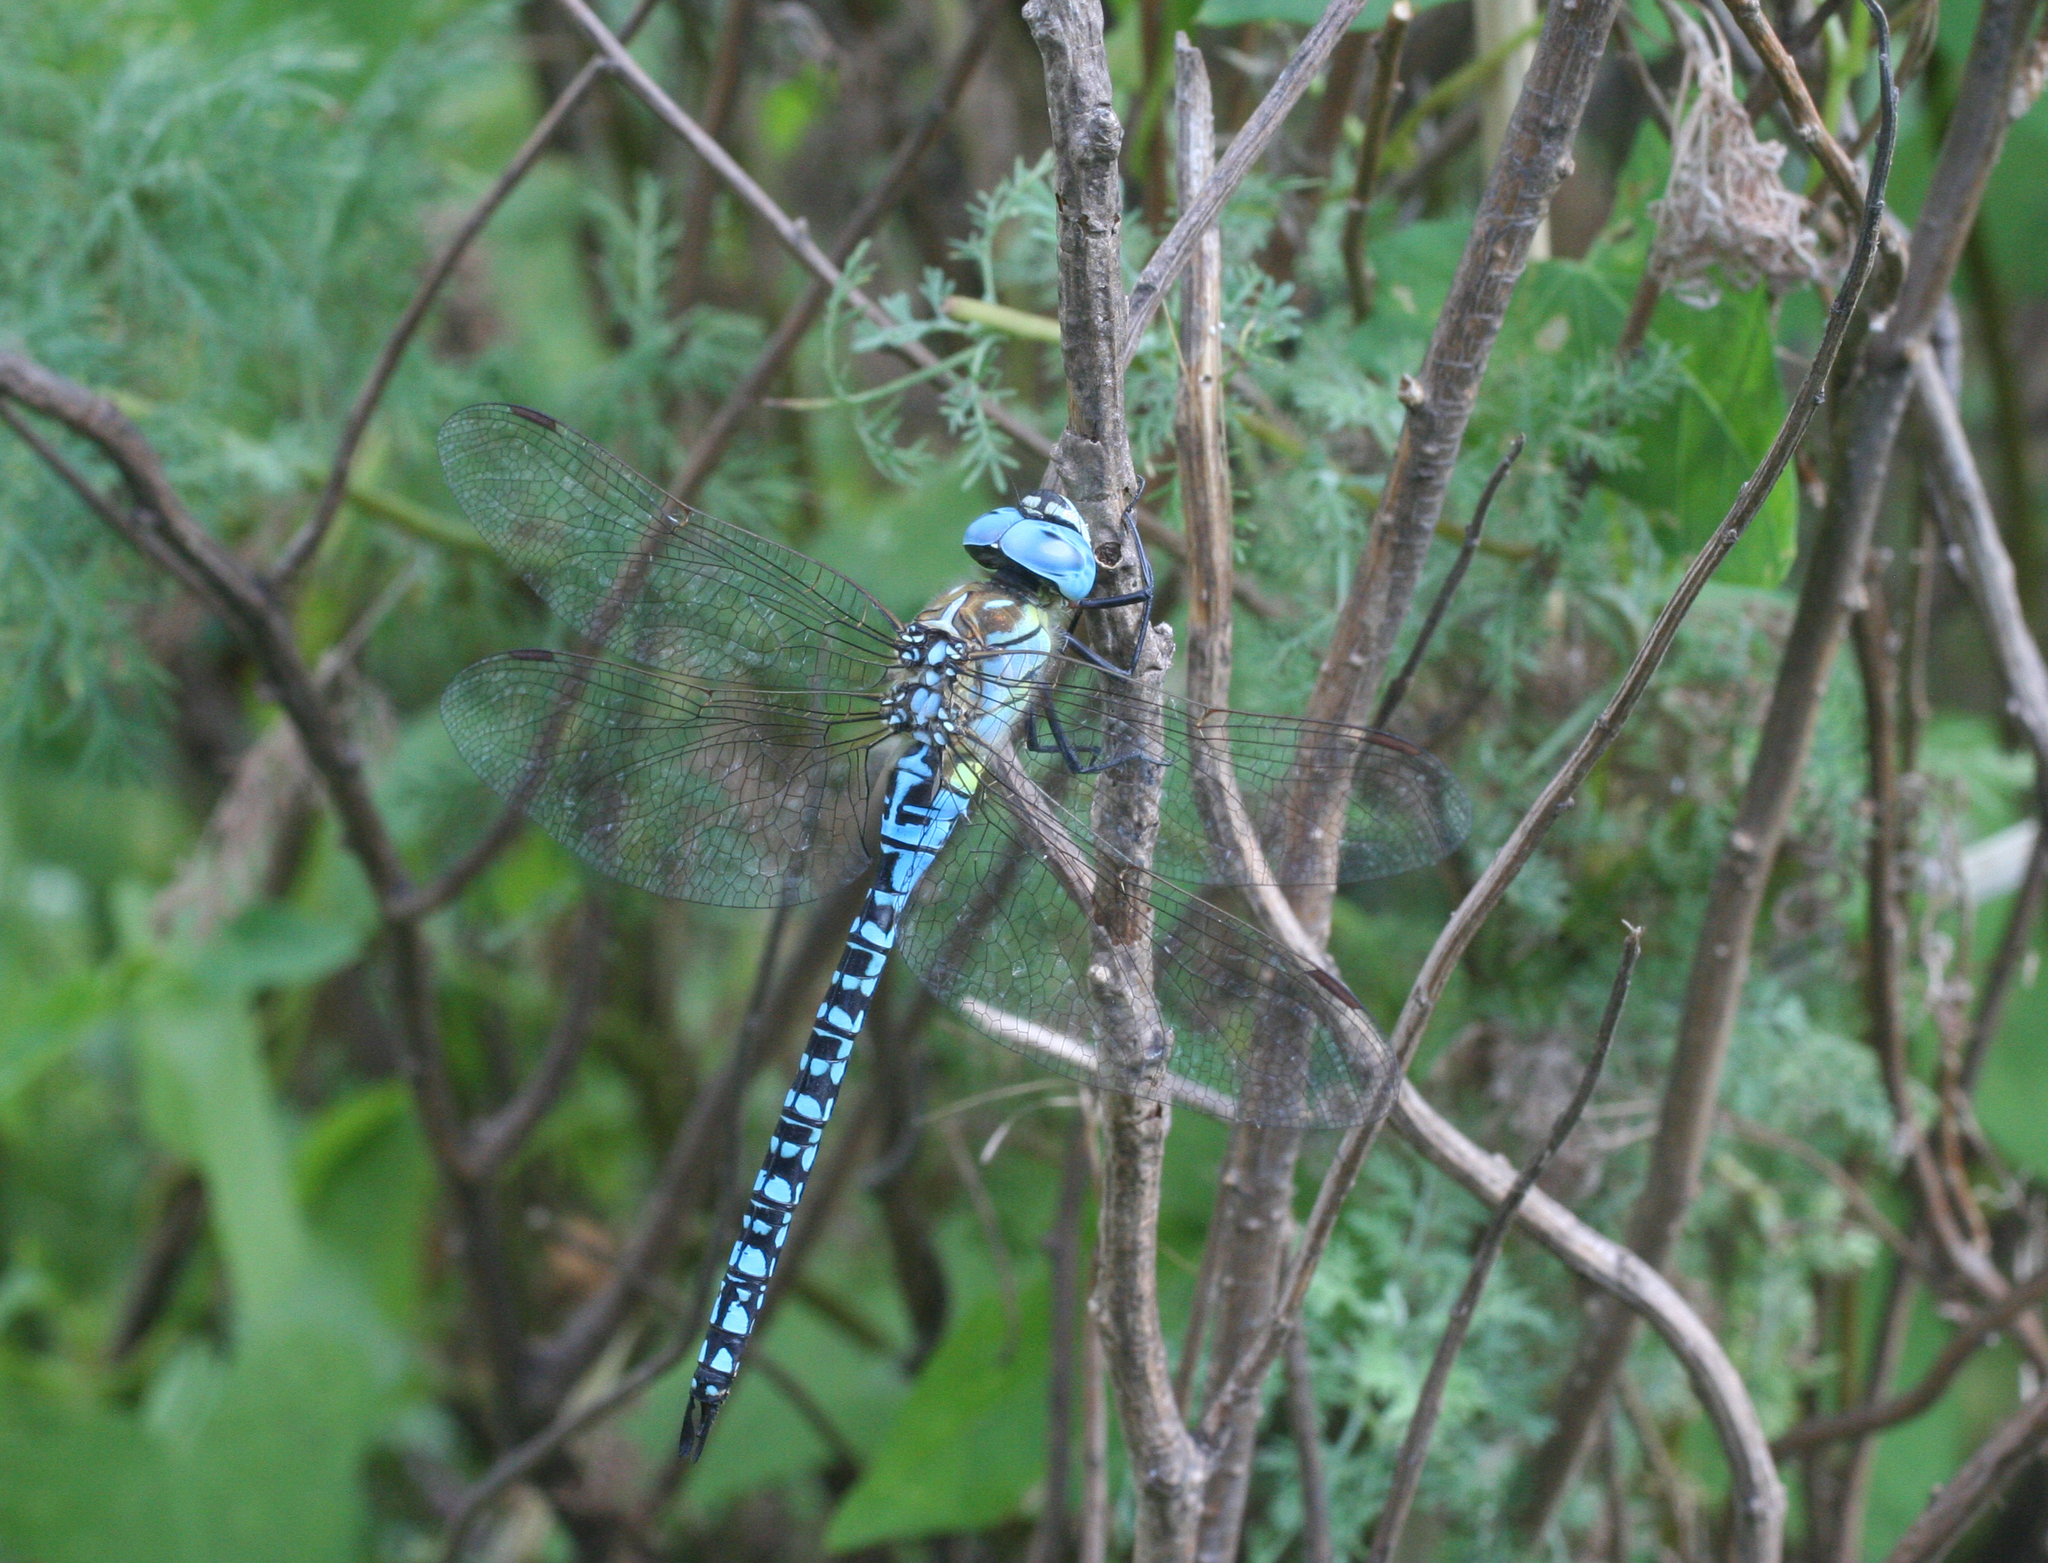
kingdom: Animalia
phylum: Arthropoda
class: Insecta
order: Odonata
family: Aeshnidae
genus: Aeshna
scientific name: Aeshna affinis
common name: Southern migrant hawker
